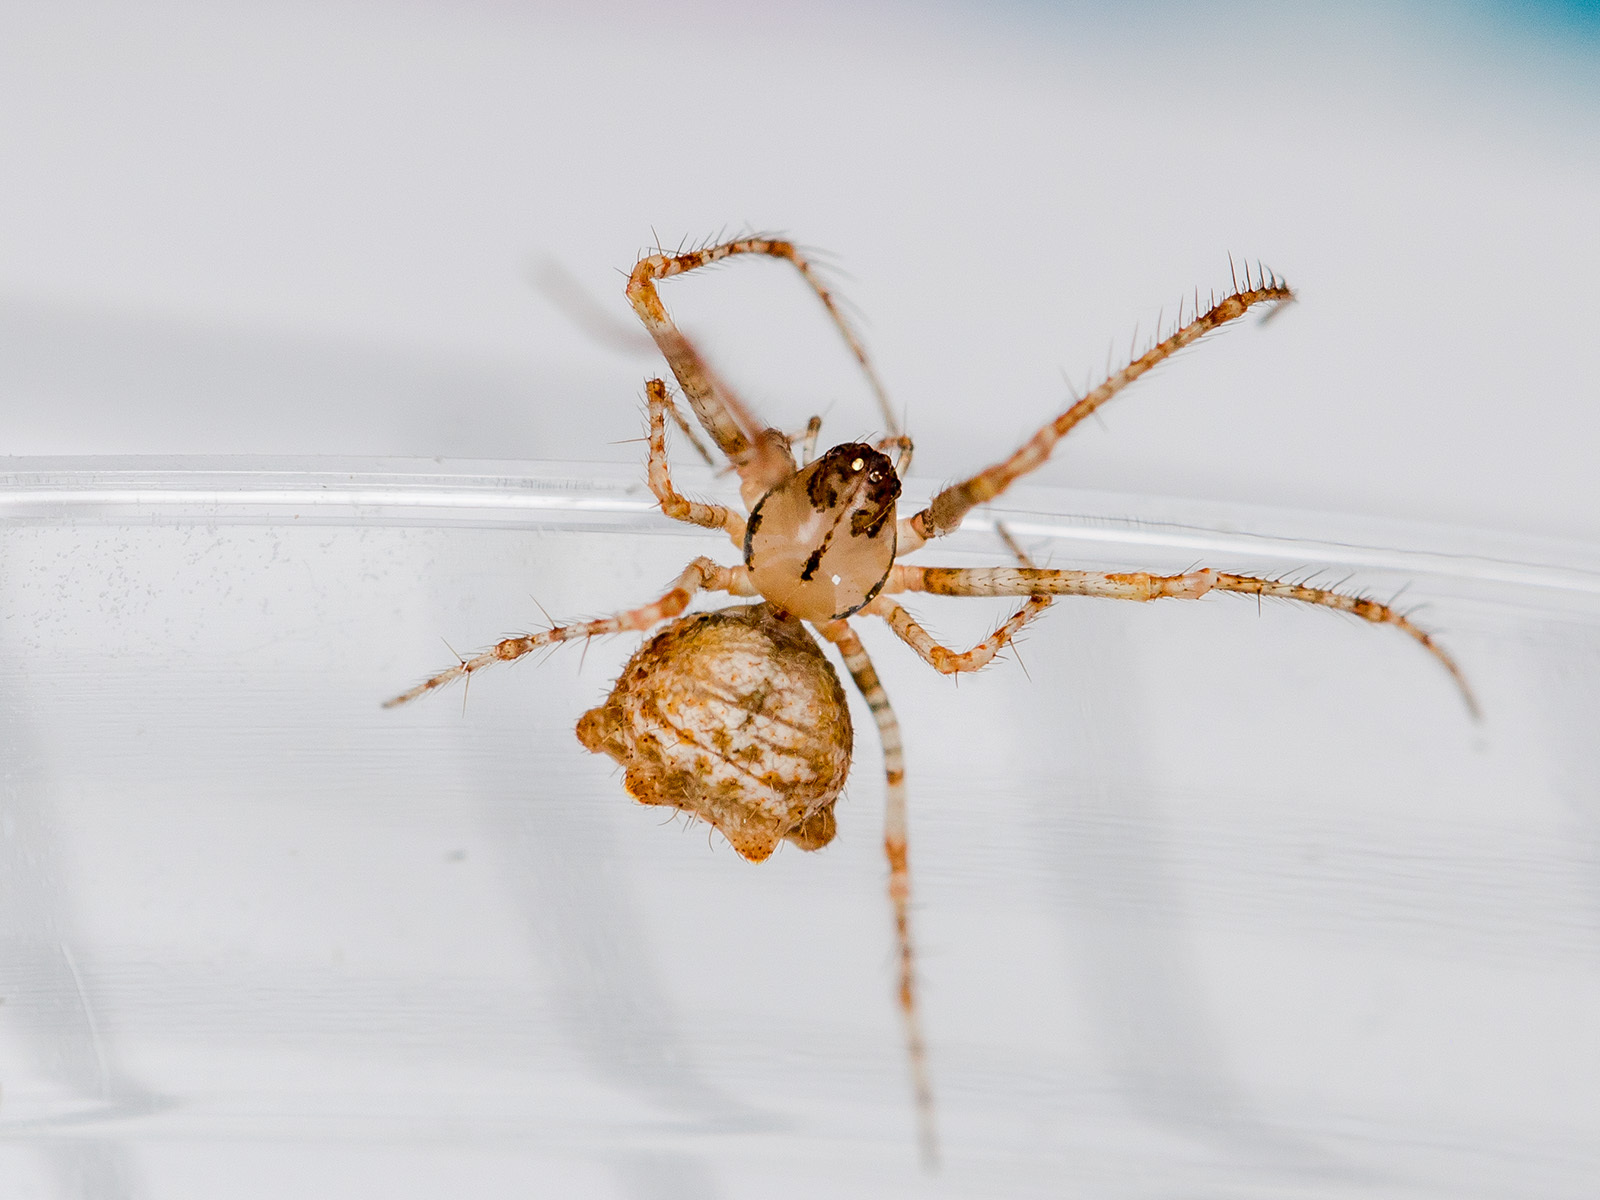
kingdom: Animalia
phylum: Arthropoda
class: Arachnida
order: Araneae
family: Mimetidae
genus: Ero
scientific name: Ero aphana
